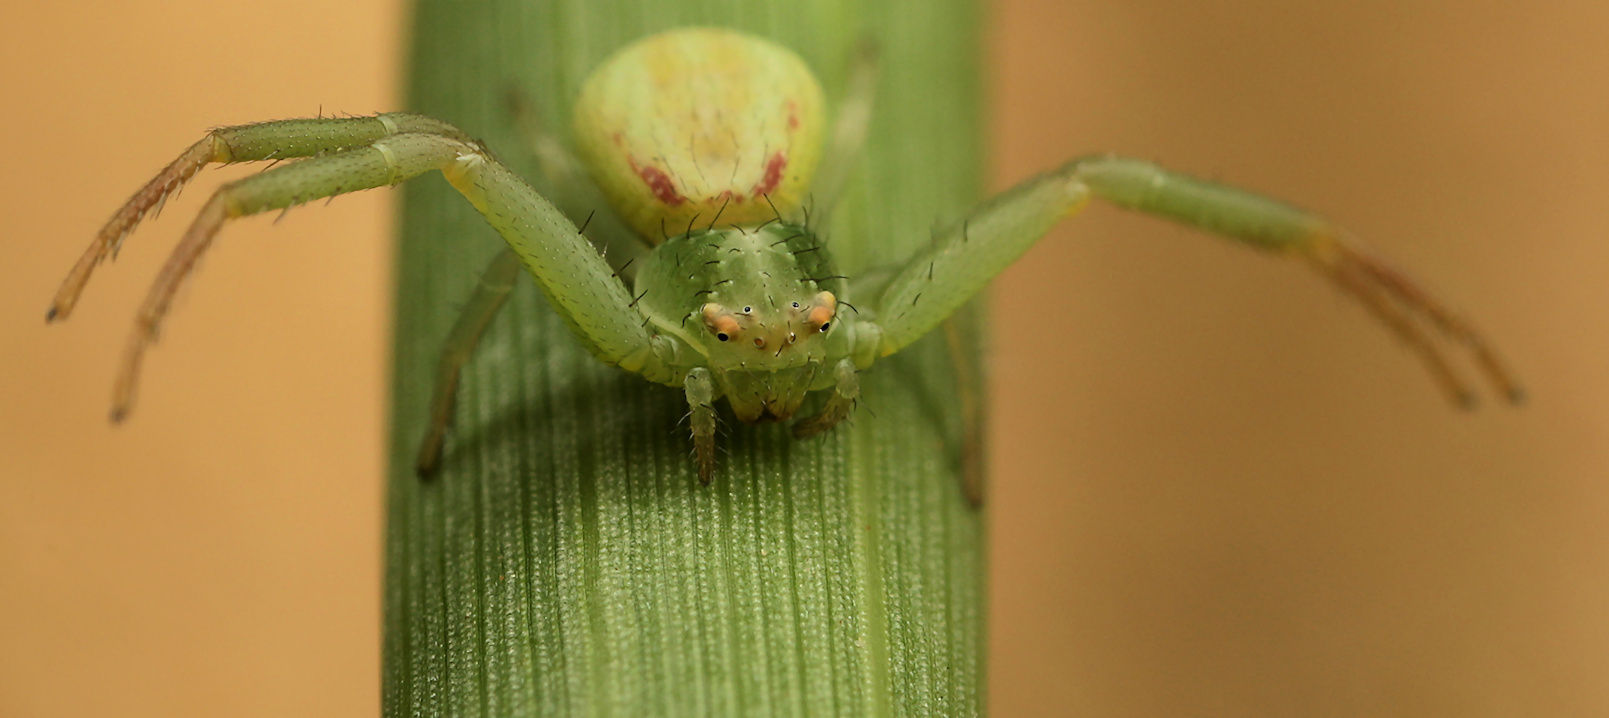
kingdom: Animalia
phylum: Arthropoda
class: Arachnida
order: Araneae
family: Thomisidae
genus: Misumenops
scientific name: Misumenops rubrodecoratus
